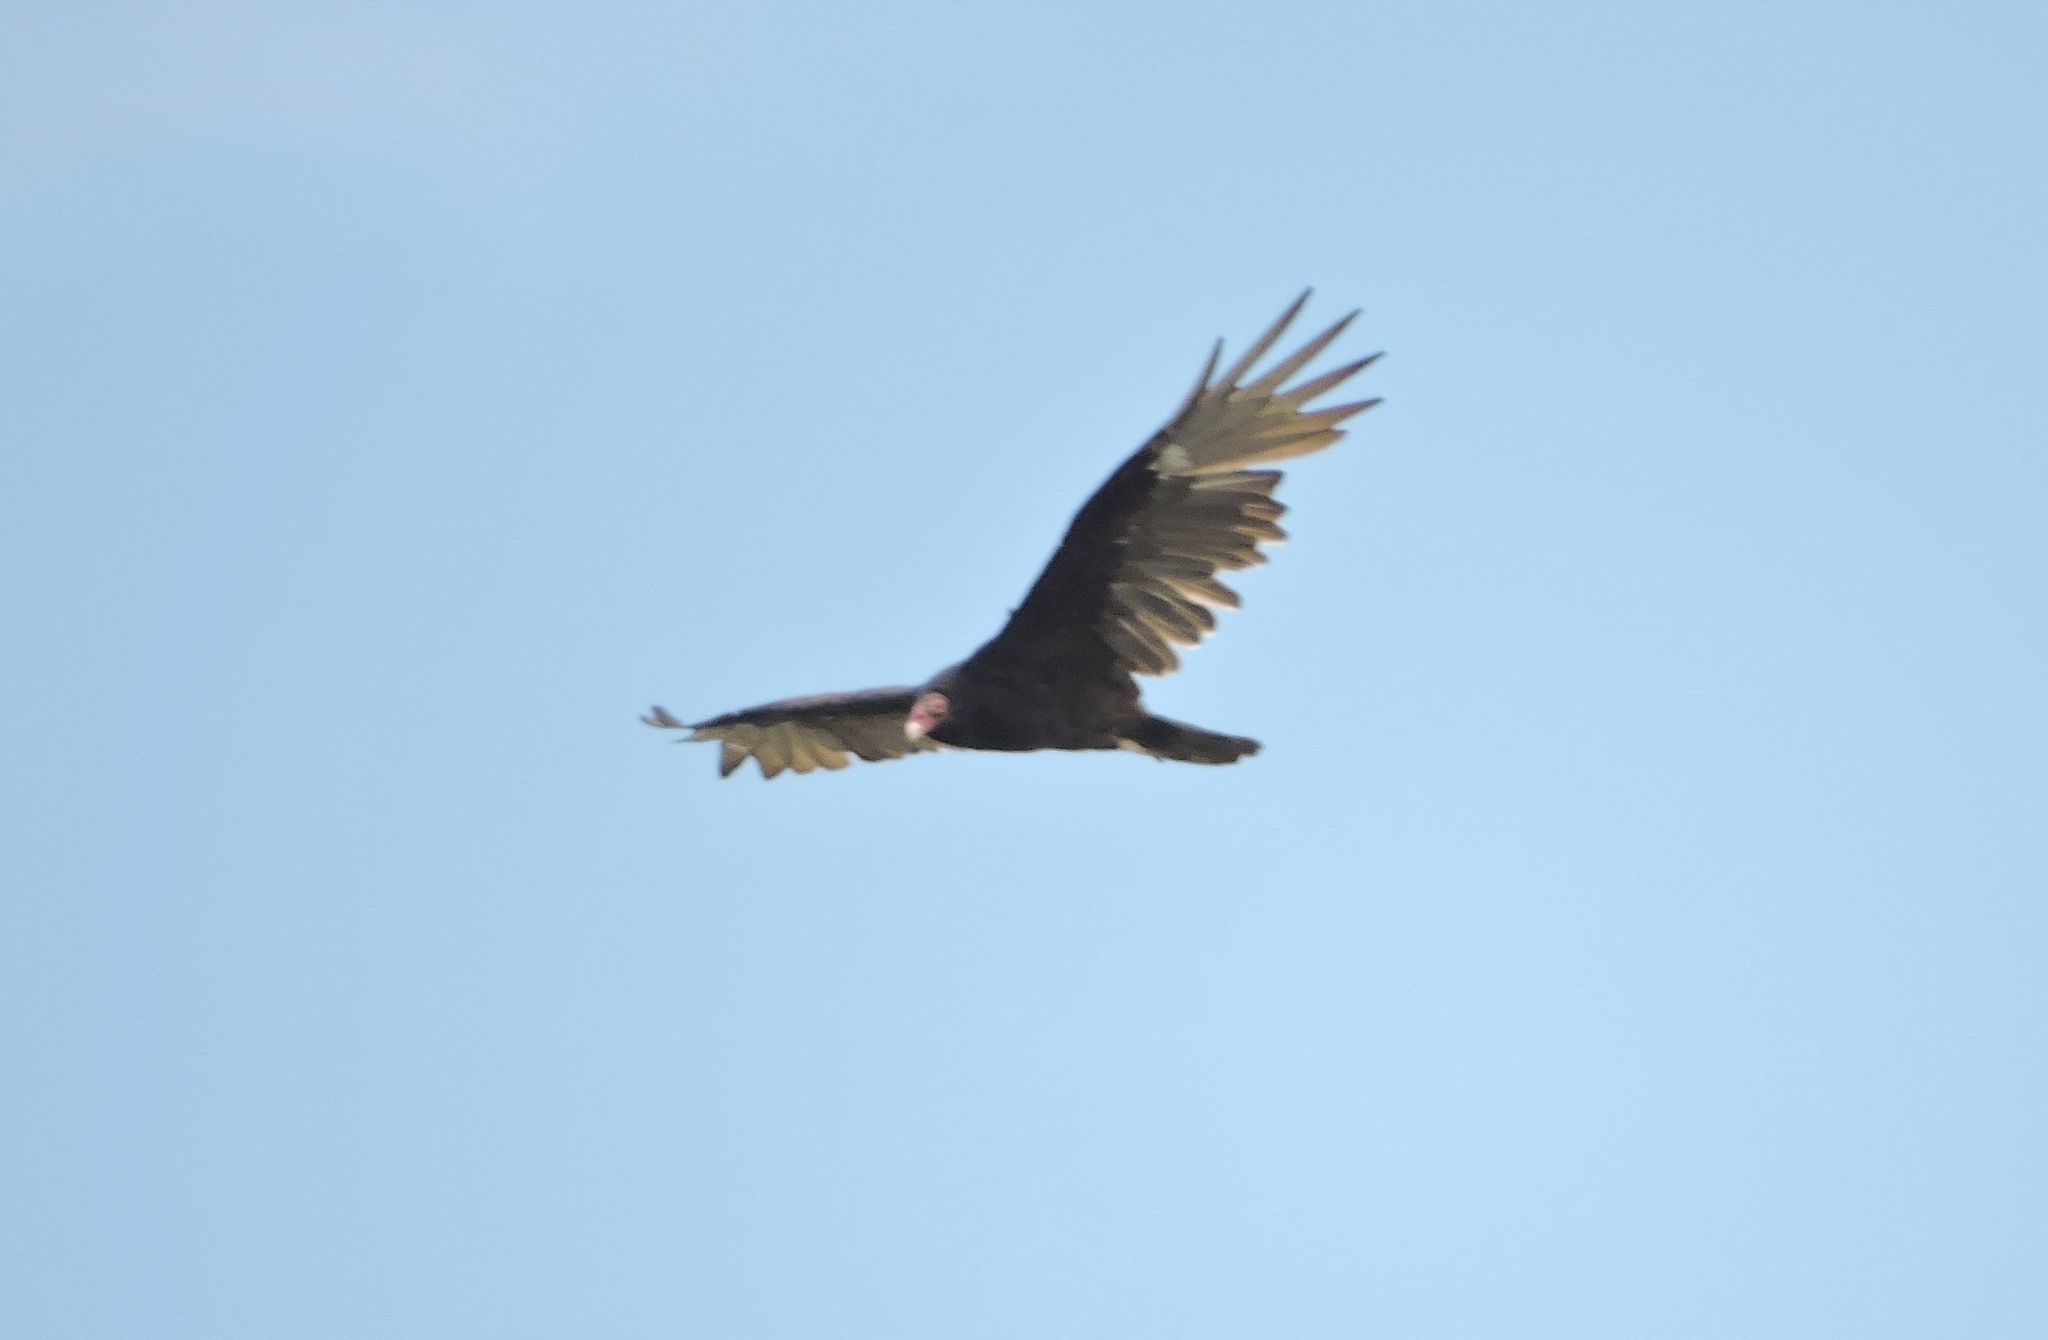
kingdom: Animalia
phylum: Chordata
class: Aves
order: Accipitriformes
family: Cathartidae
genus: Cathartes
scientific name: Cathartes aura
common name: Turkey vulture
